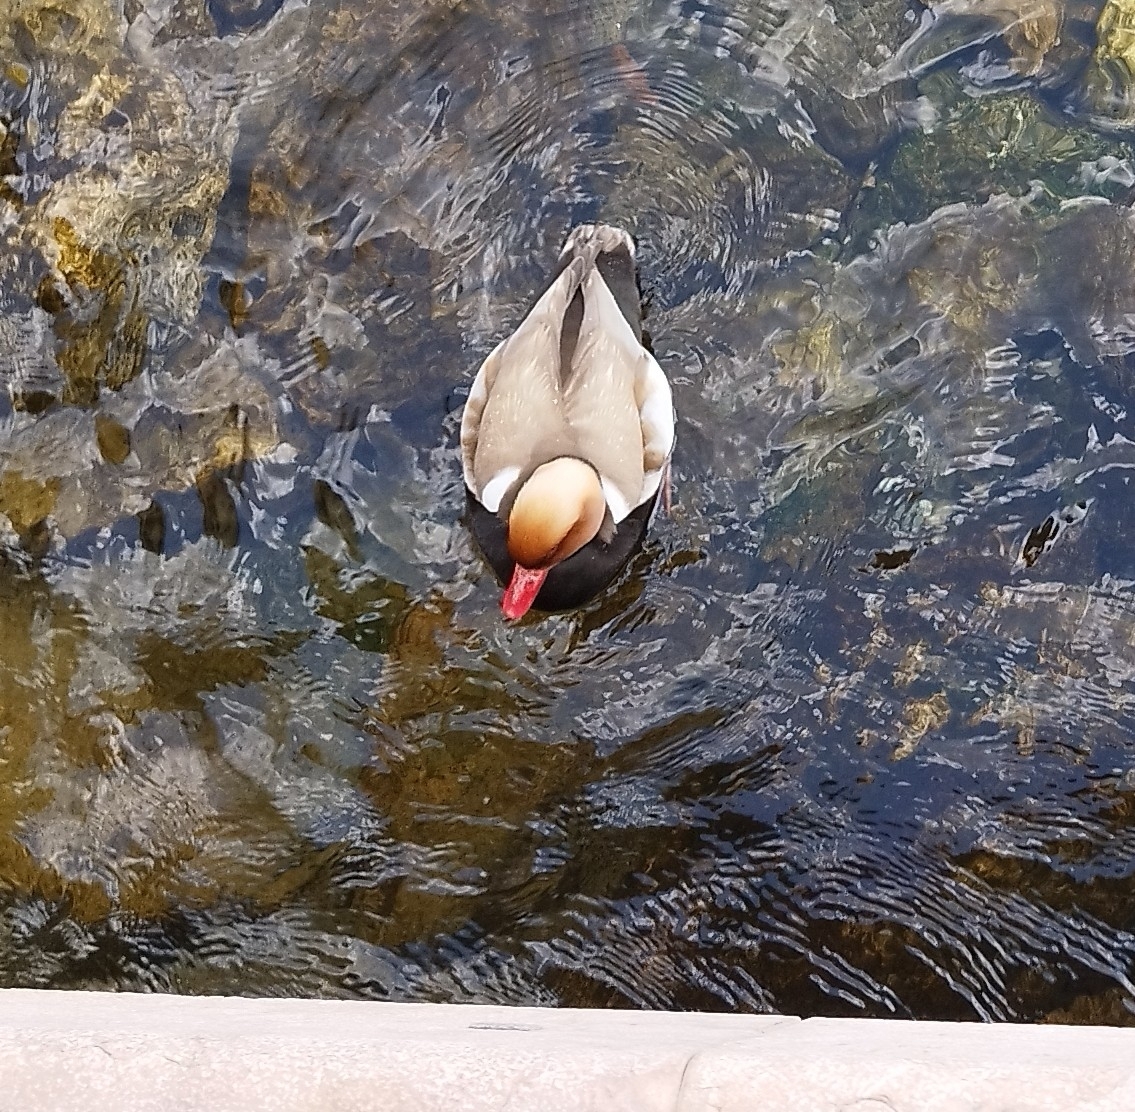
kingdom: Animalia
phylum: Chordata
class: Aves
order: Anseriformes
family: Anatidae
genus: Netta
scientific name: Netta rufina
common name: Red-crested pochard
